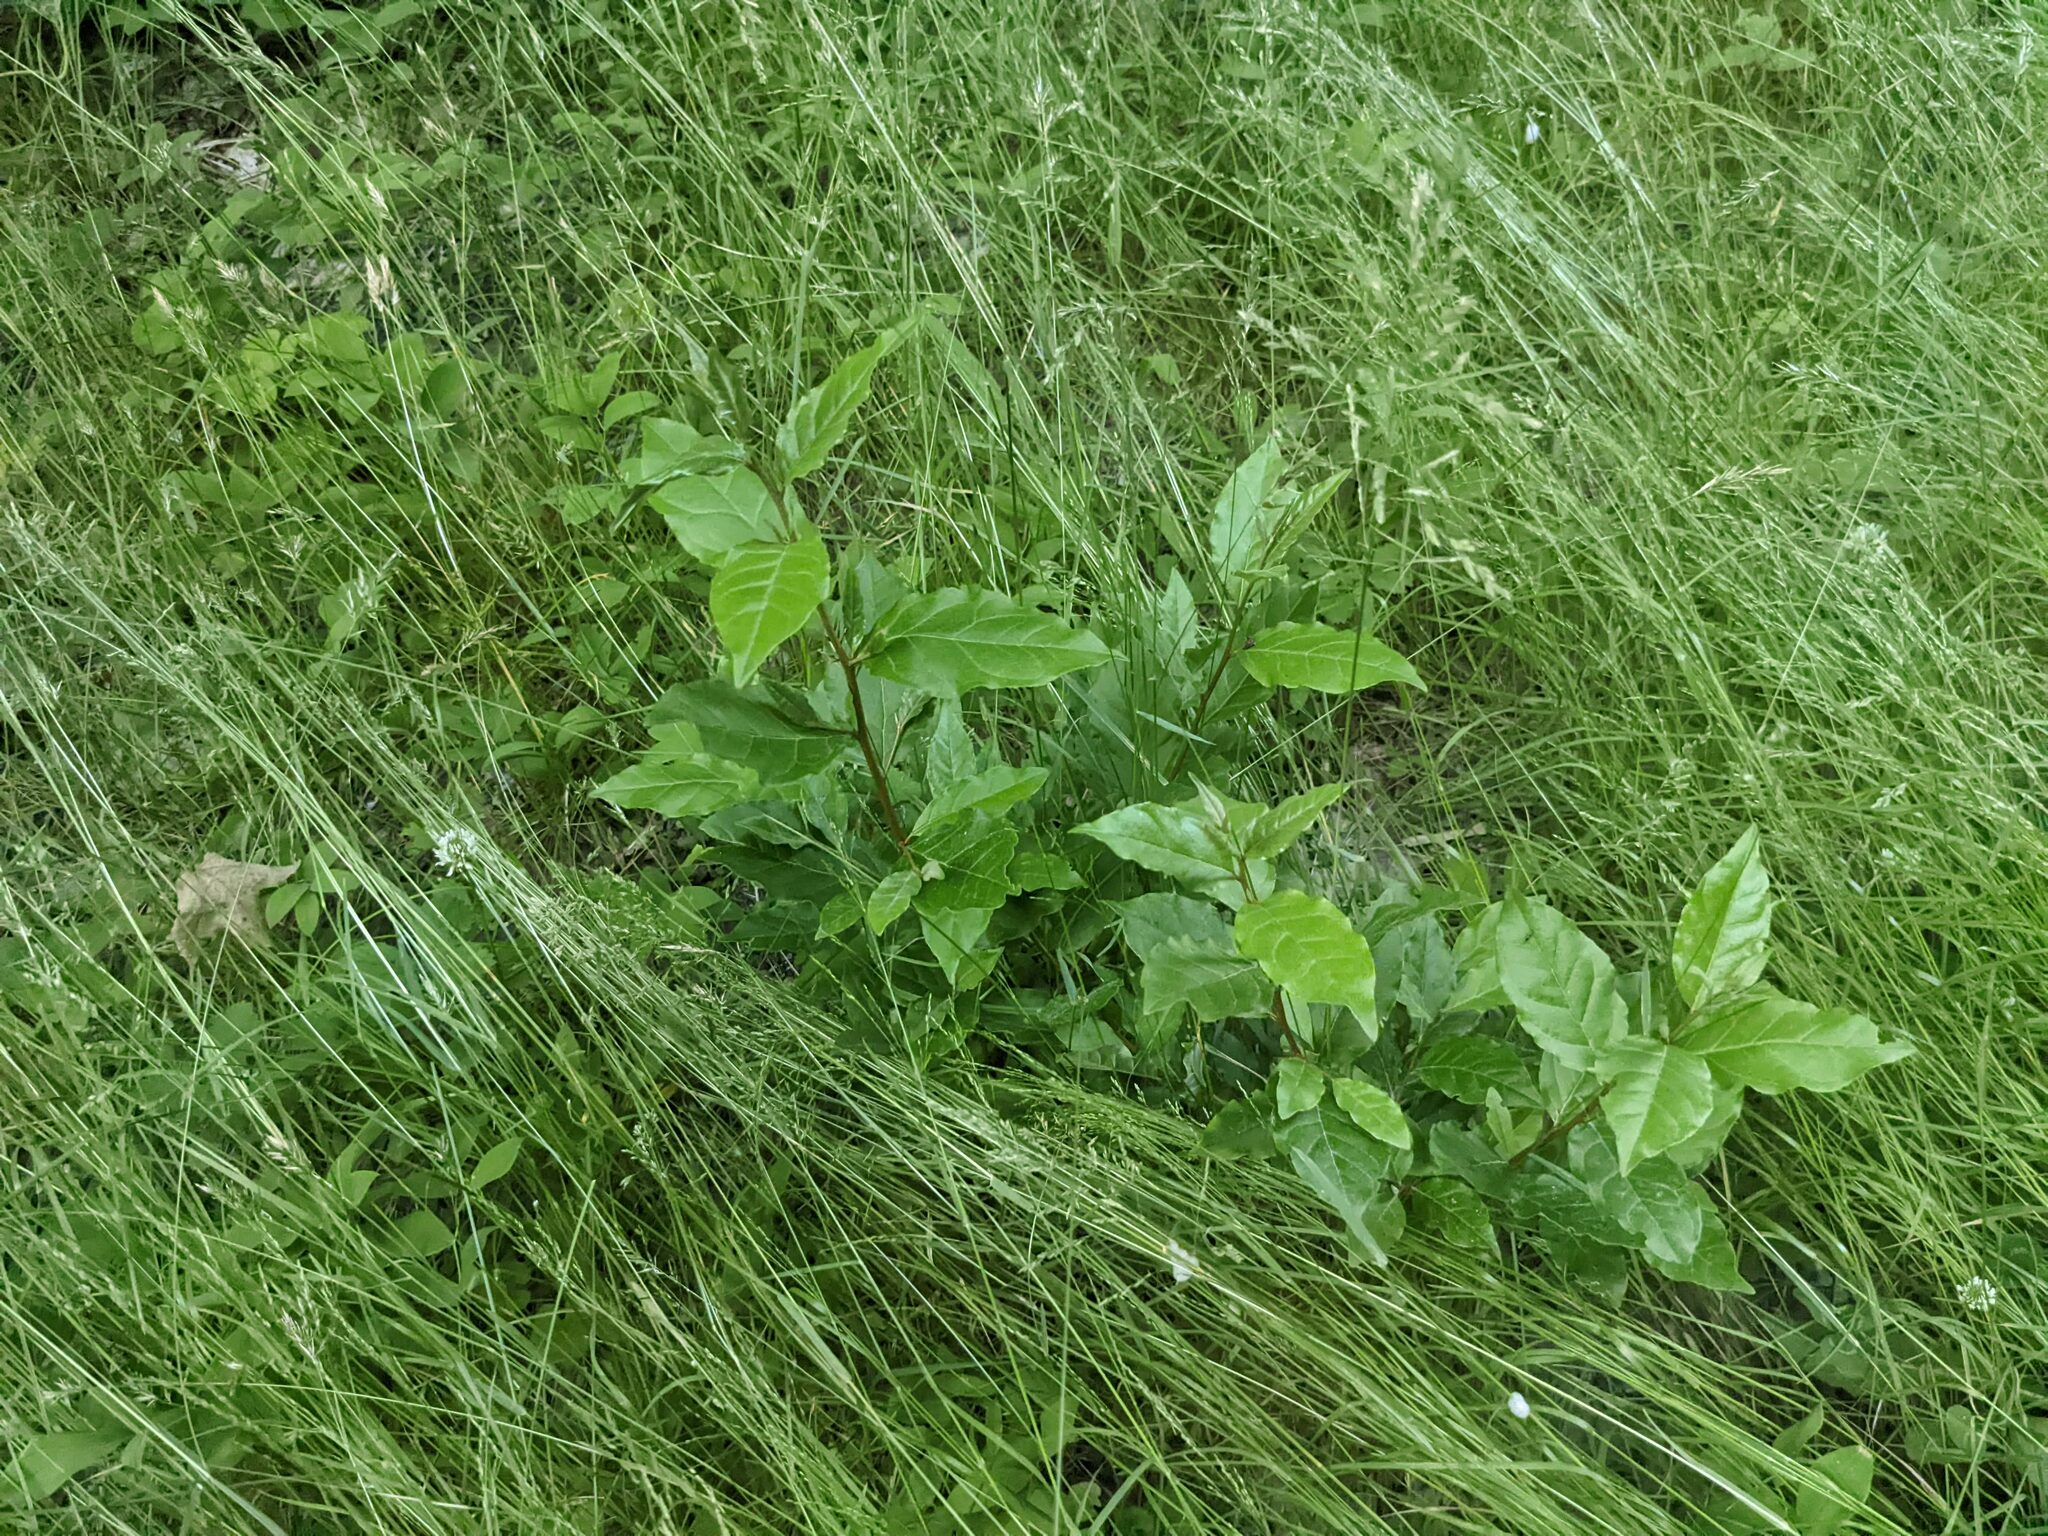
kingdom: Plantae
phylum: Tracheophyta
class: Magnoliopsida
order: Rosales
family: Elaeagnaceae
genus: Elaeagnus
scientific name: Elaeagnus umbellata
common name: Autumn olive
